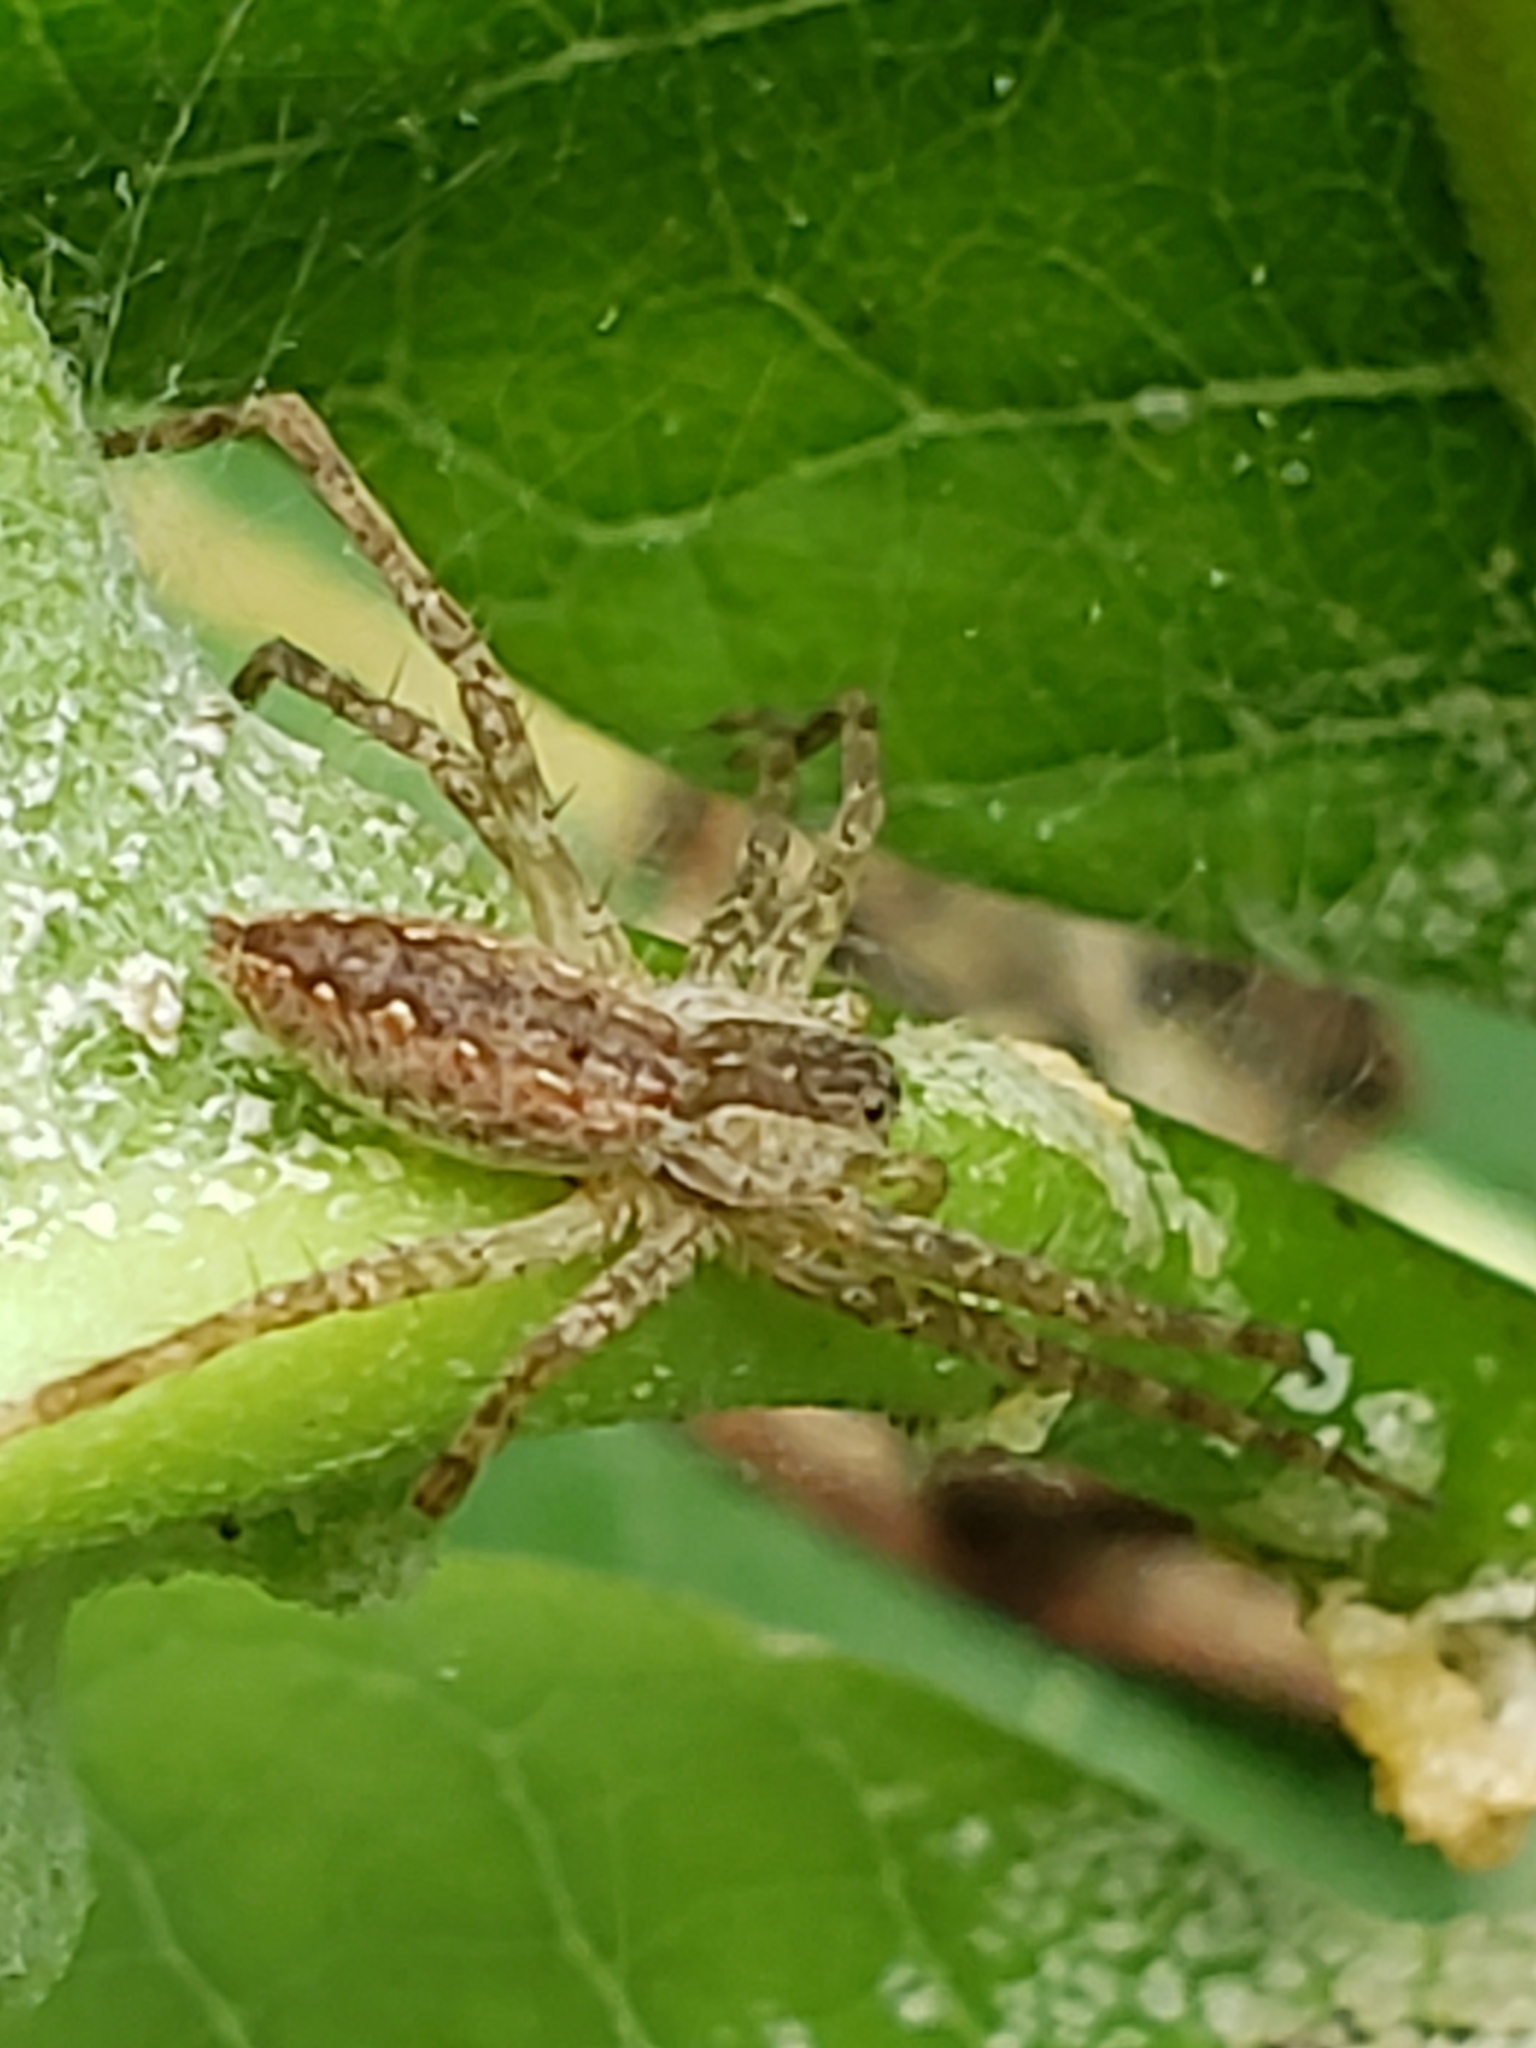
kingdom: Animalia
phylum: Arthropoda
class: Arachnida
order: Araneae
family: Pisauridae
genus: Pisaurina
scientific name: Pisaurina mira
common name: American nursery web spider
